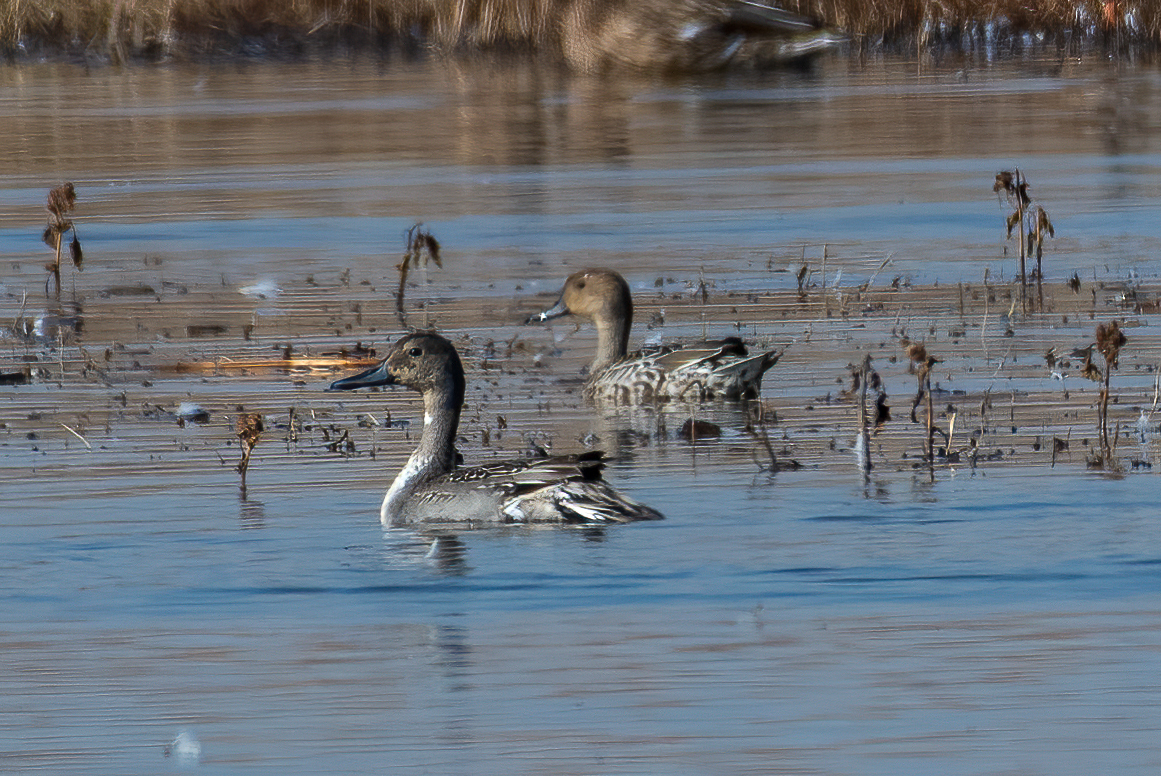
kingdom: Animalia
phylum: Chordata
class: Aves
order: Anseriformes
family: Anatidae
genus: Anas
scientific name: Anas acuta
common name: Northern pintail
